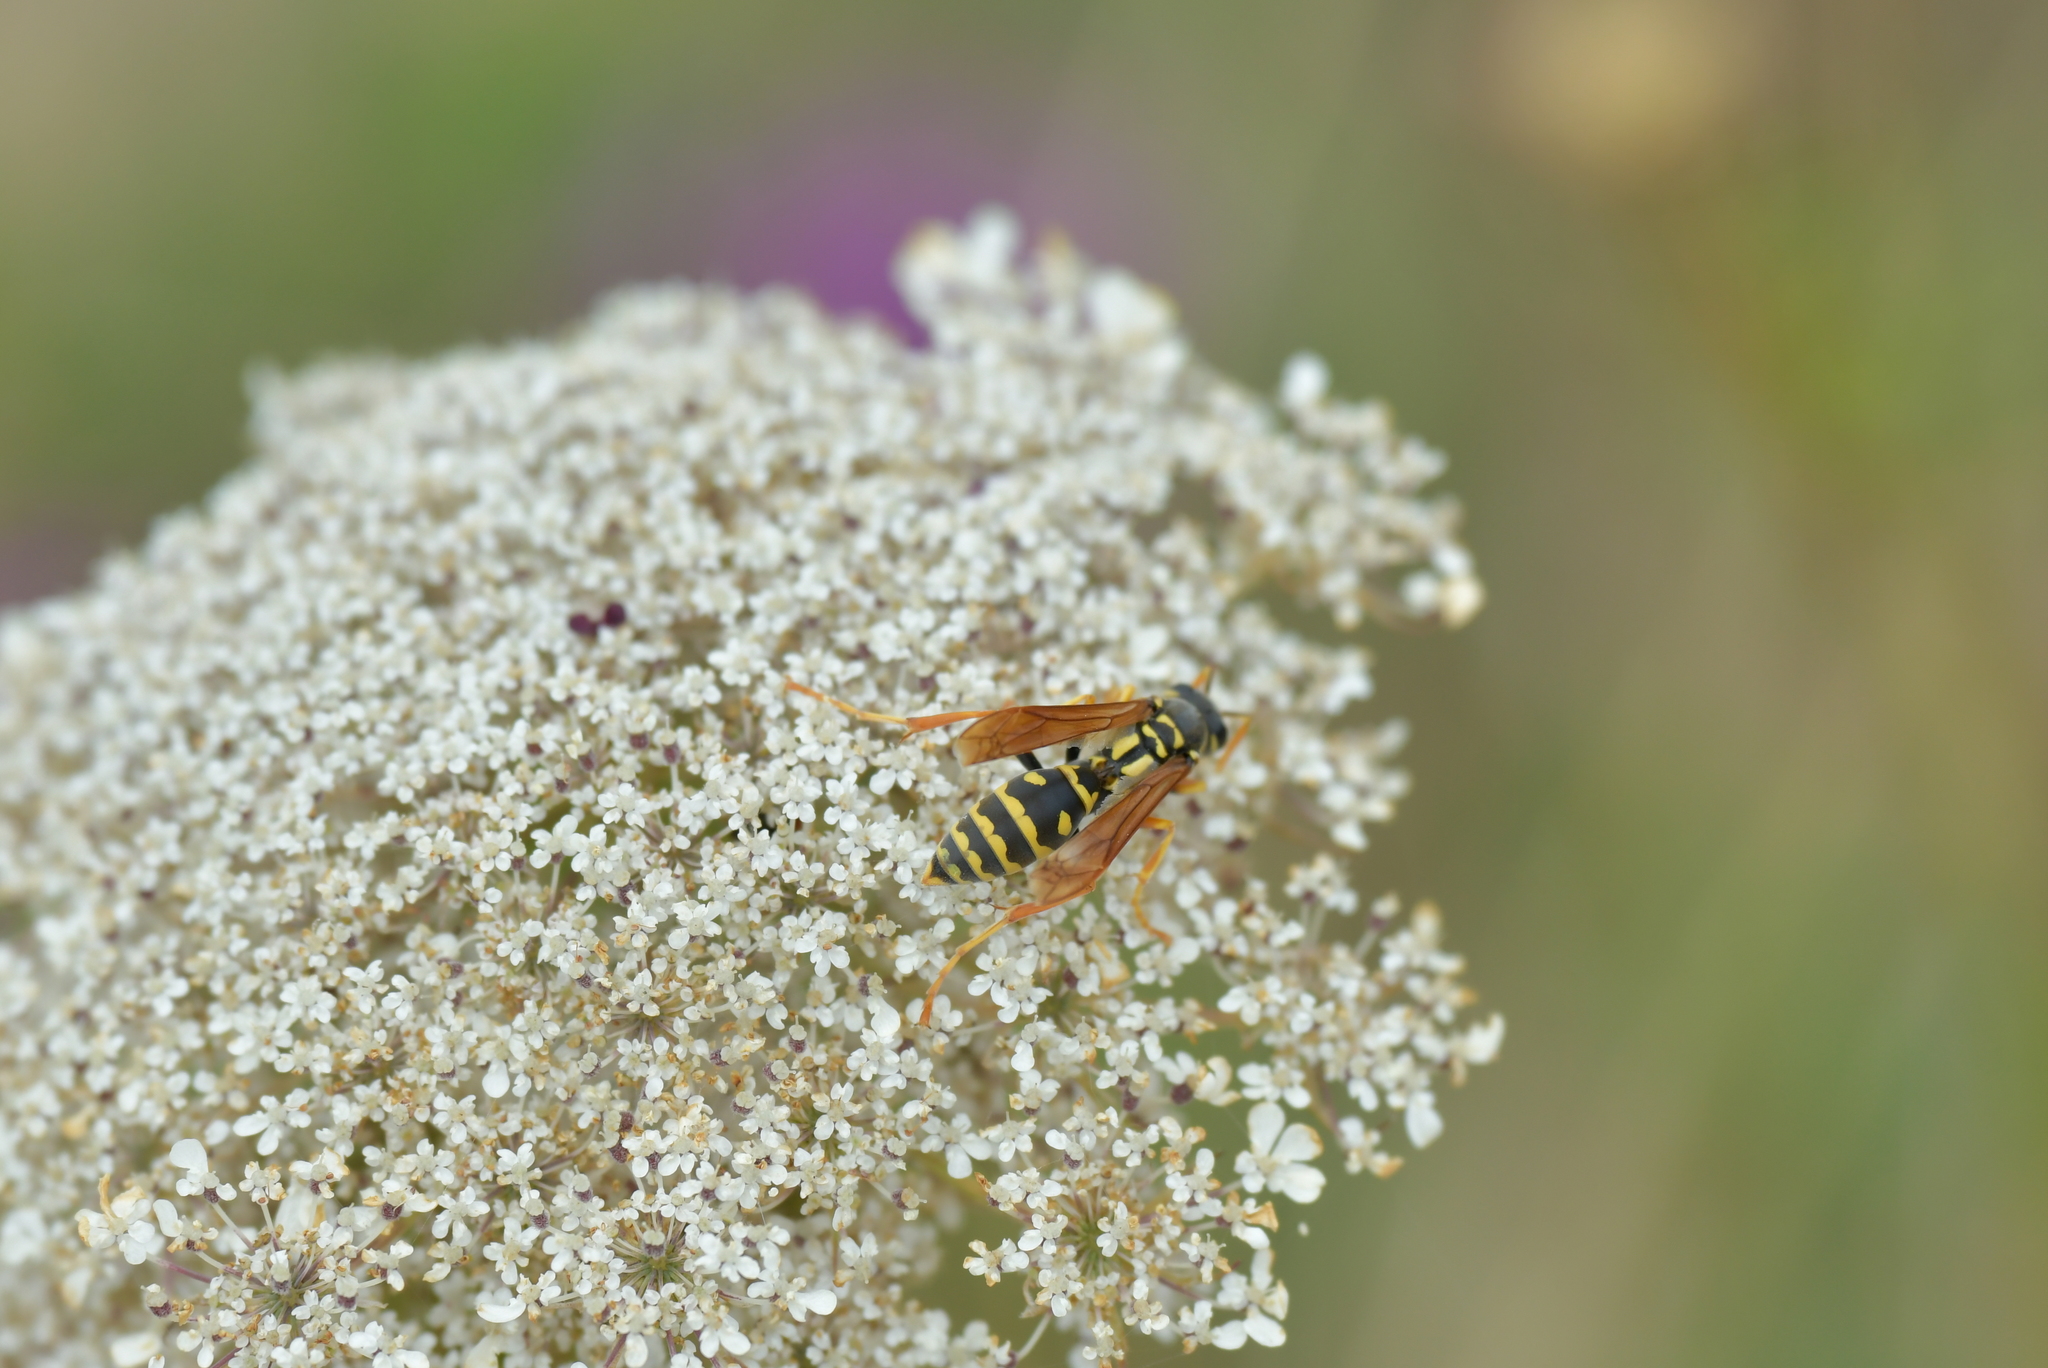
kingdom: Animalia
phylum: Arthropoda
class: Insecta
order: Hymenoptera
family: Eumenidae
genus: Polistes
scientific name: Polistes chinensis
